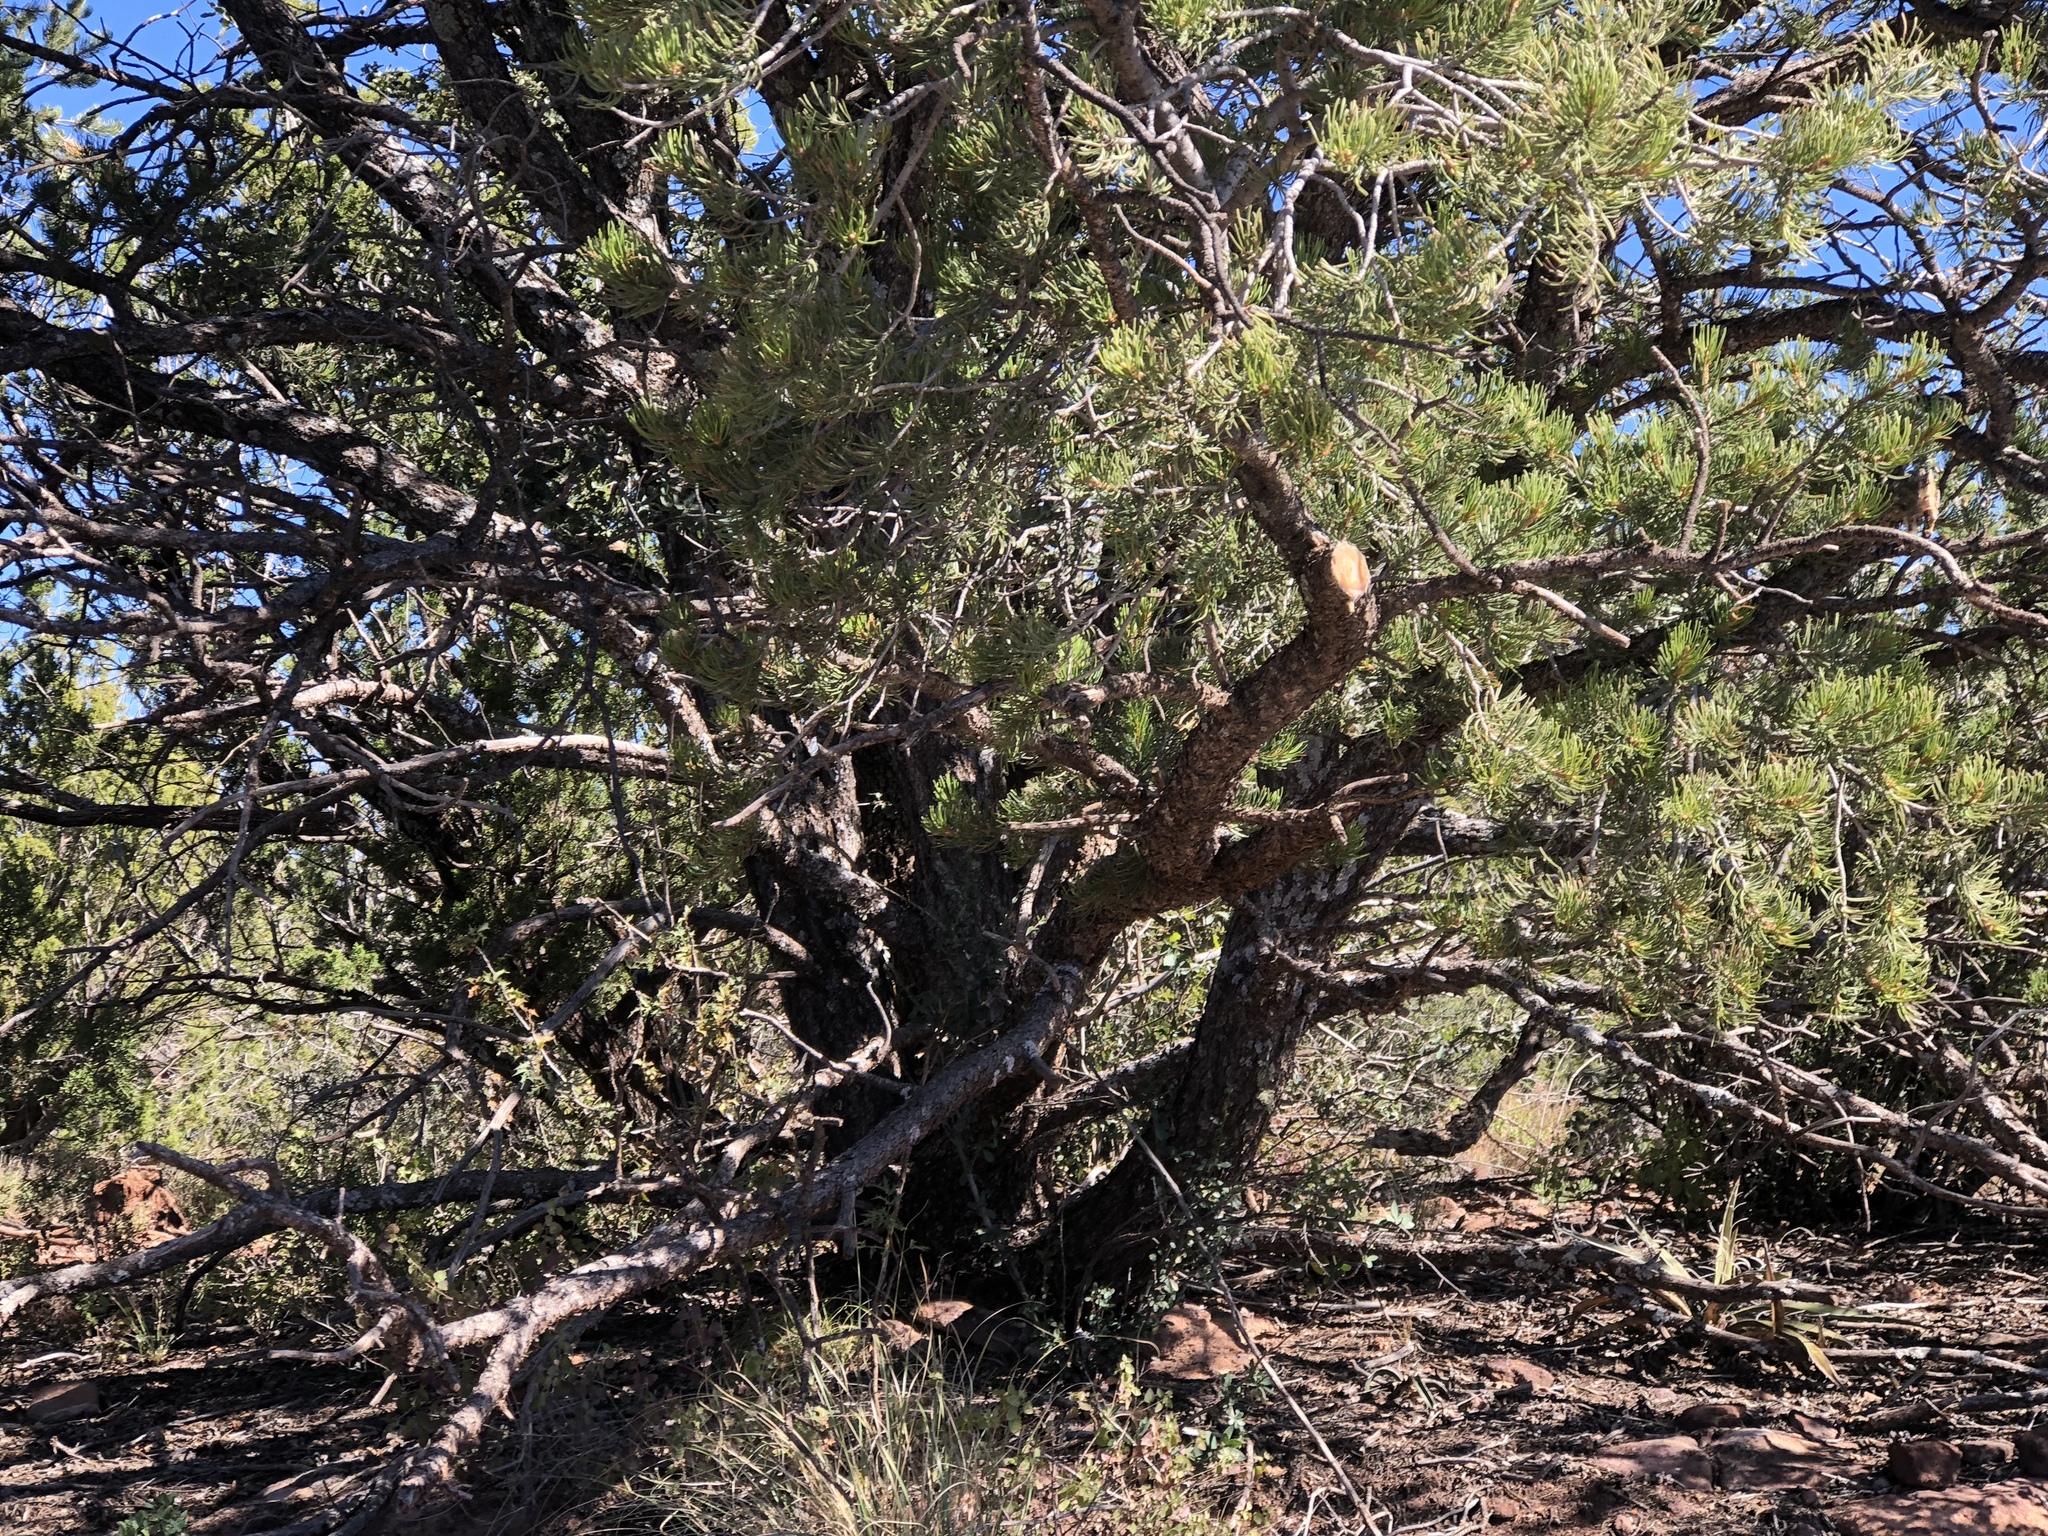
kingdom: Plantae
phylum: Tracheophyta
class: Pinopsida
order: Pinales
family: Pinaceae
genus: Pinus
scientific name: Pinus edulis
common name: Colorado pinyon
